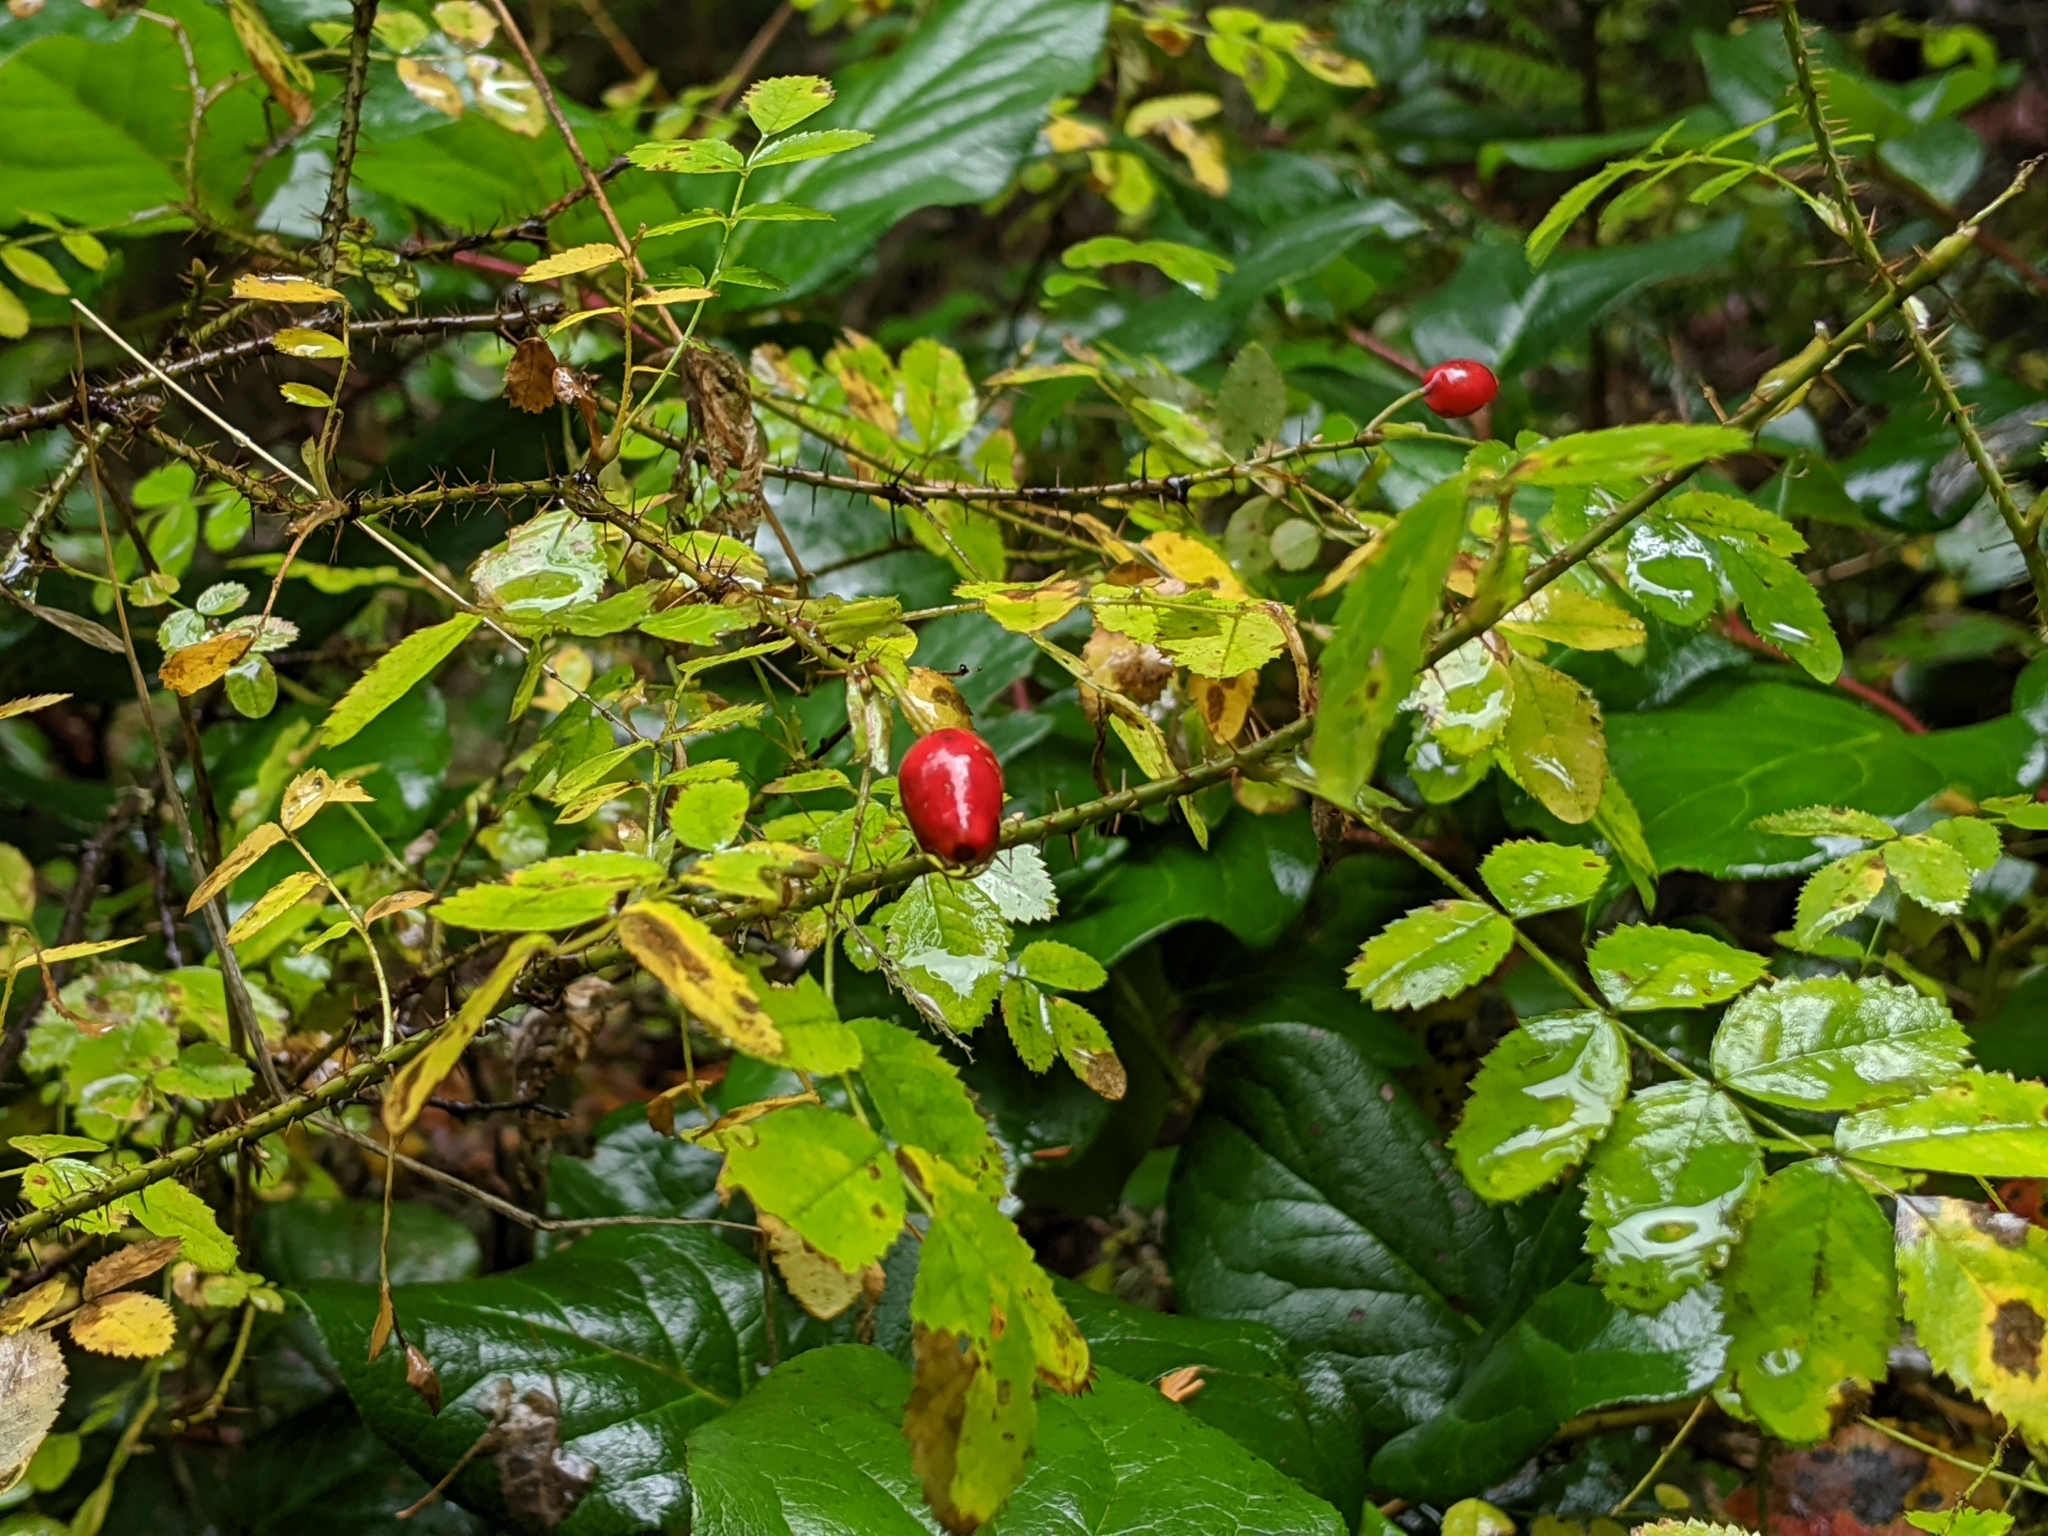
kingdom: Plantae
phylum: Tracheophyta
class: Magnoliopsida
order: Rosales
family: Rosaceae
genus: Rosa
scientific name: Rosa gymnocarpa
